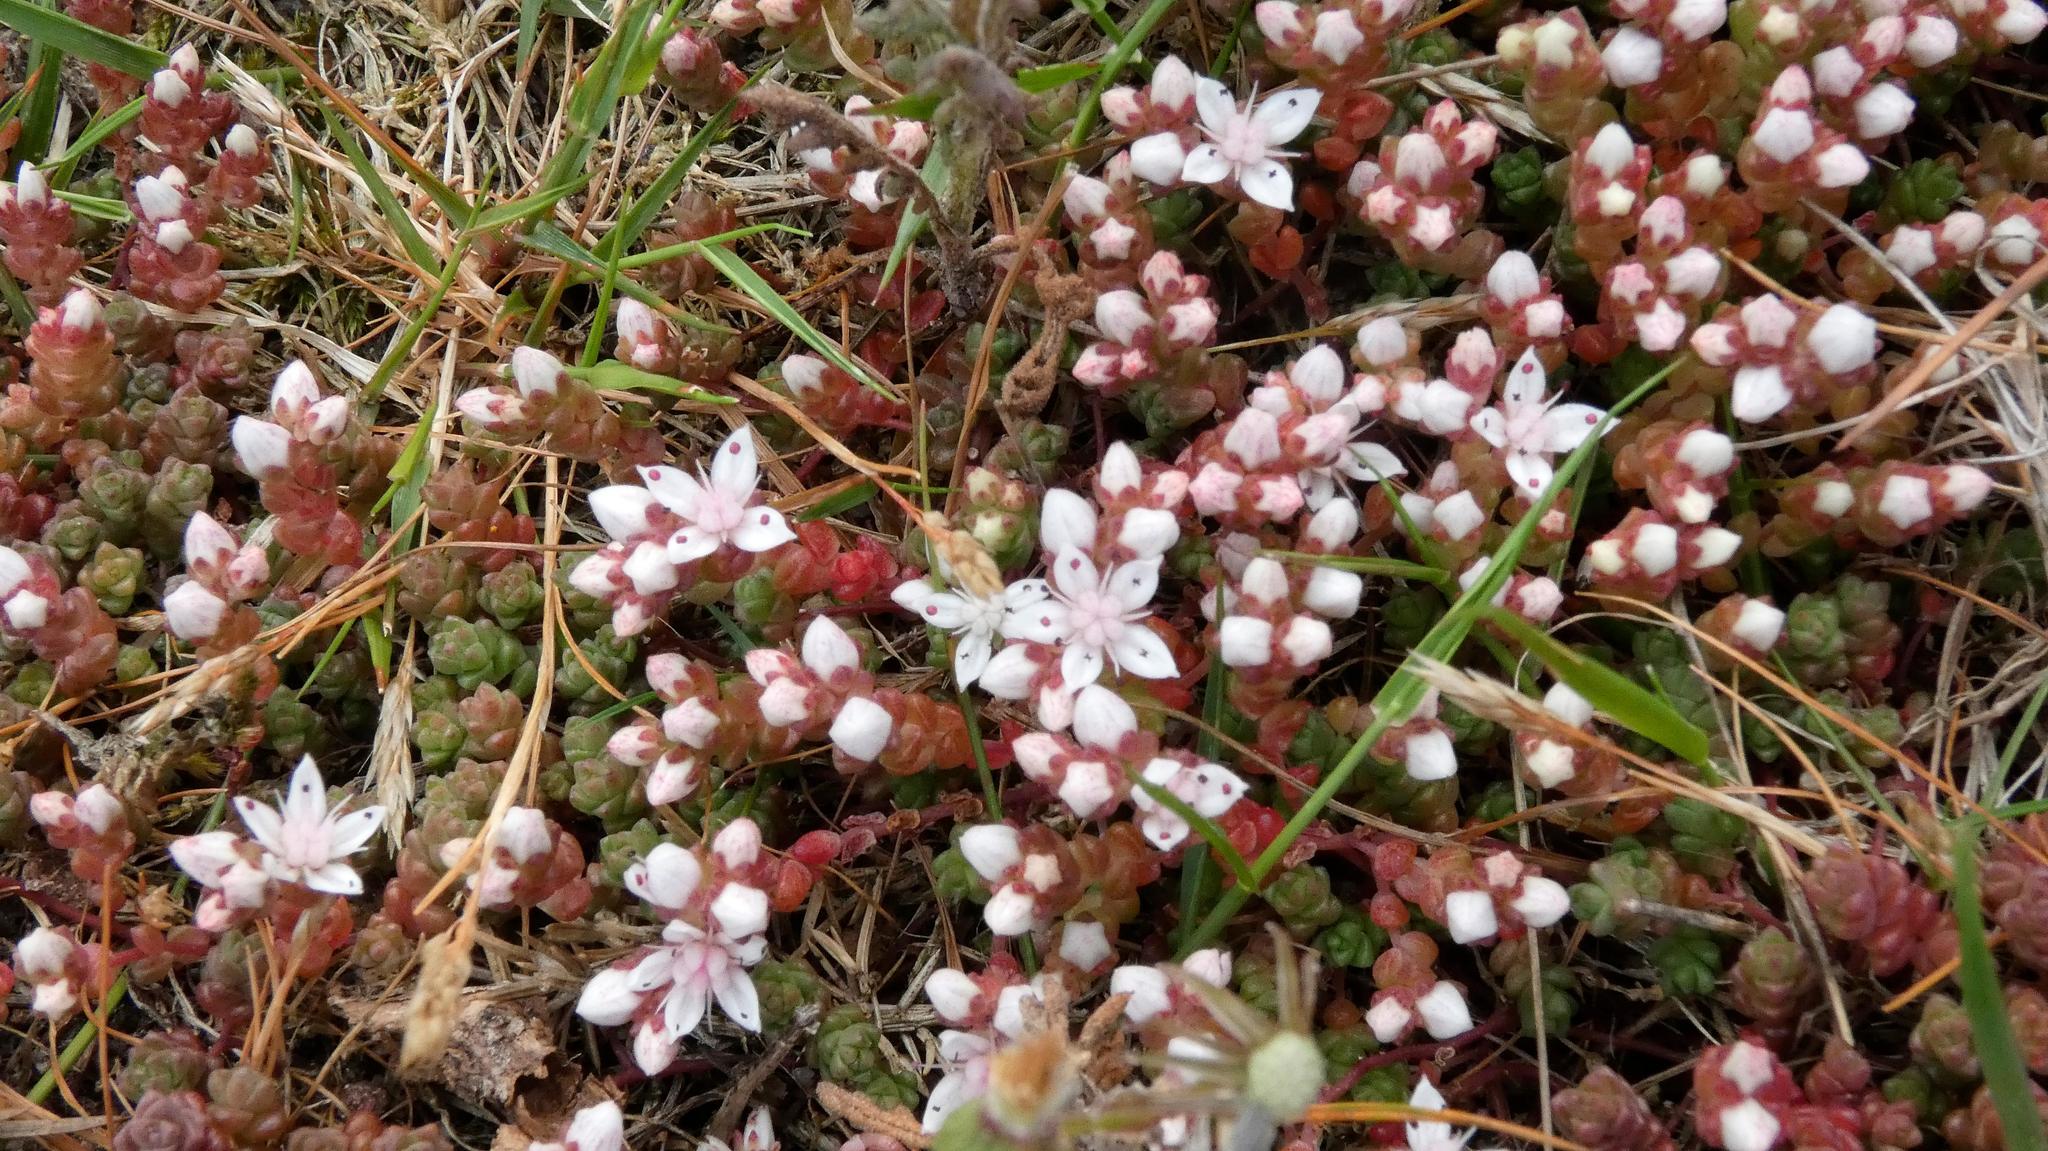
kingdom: Plantae
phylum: Tracheophyta
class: Magnoliopsida
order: Saxifragales
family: Crassulaceae
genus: Sedum
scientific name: Sedum anglicum
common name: English stonecrop
